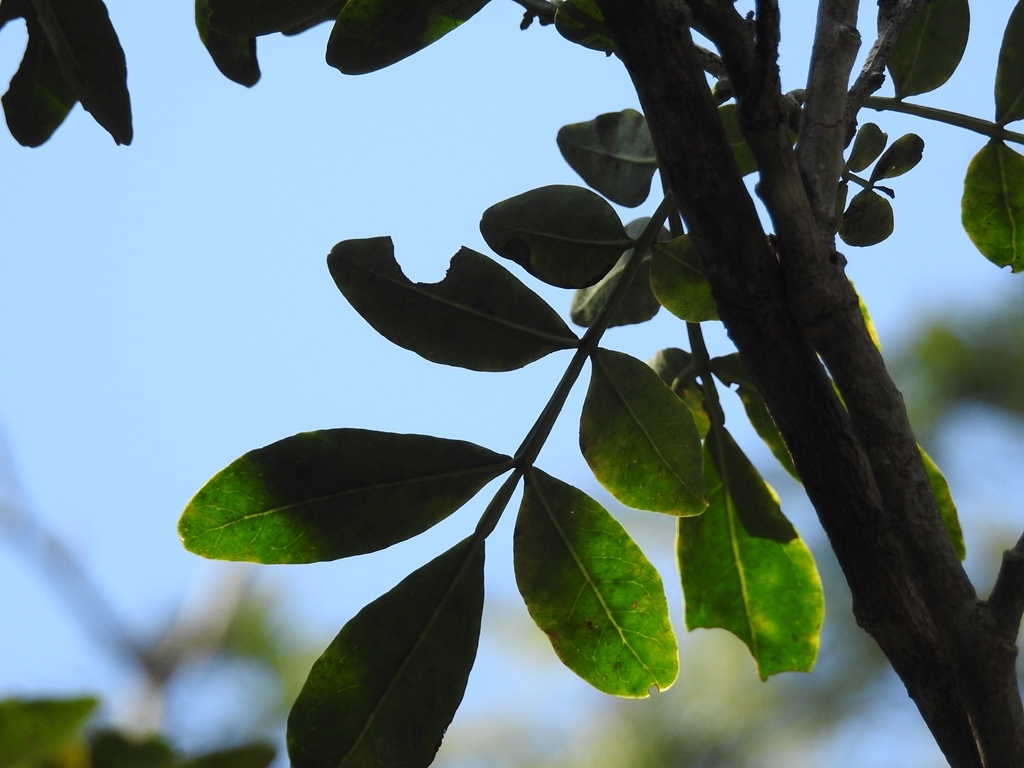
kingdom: Plantae
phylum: Tracheophyta
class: Magnoliopsida
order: Sapindales
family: Rutaceae
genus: Zanthoxylum
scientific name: Zanthoxylum quassiifolium
